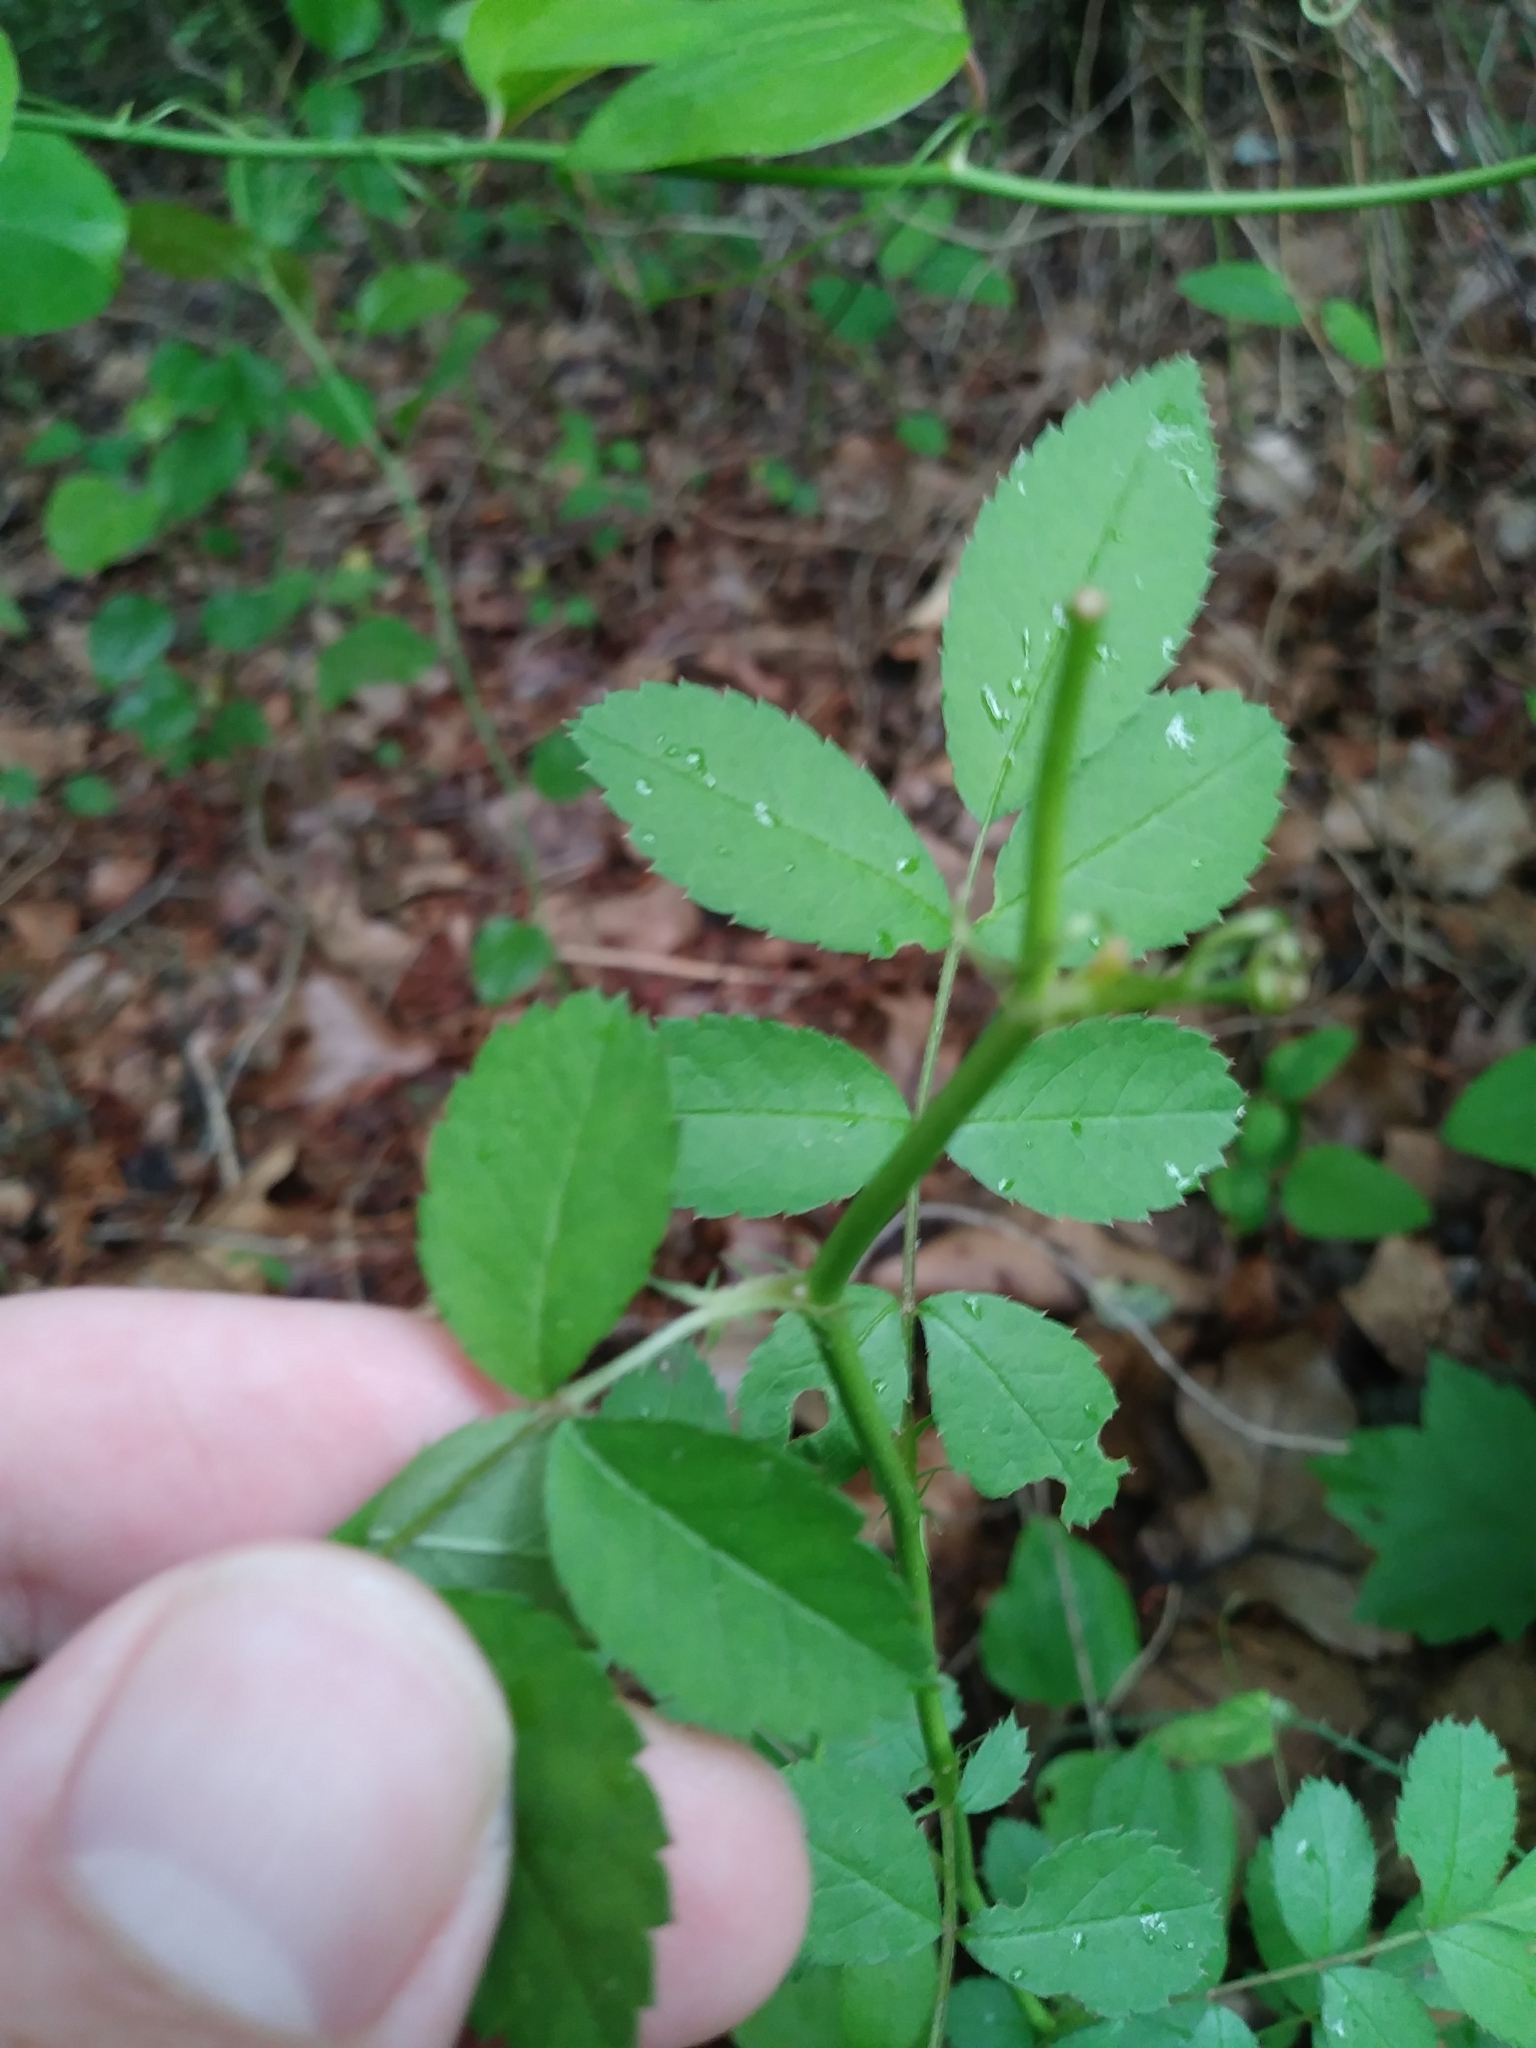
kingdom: Plantae
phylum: Tracheophyta
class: Magnoliopsida
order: Rosales
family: Rosaceae
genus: Rosa
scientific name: Rosa multiflora
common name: Multiflora rose
